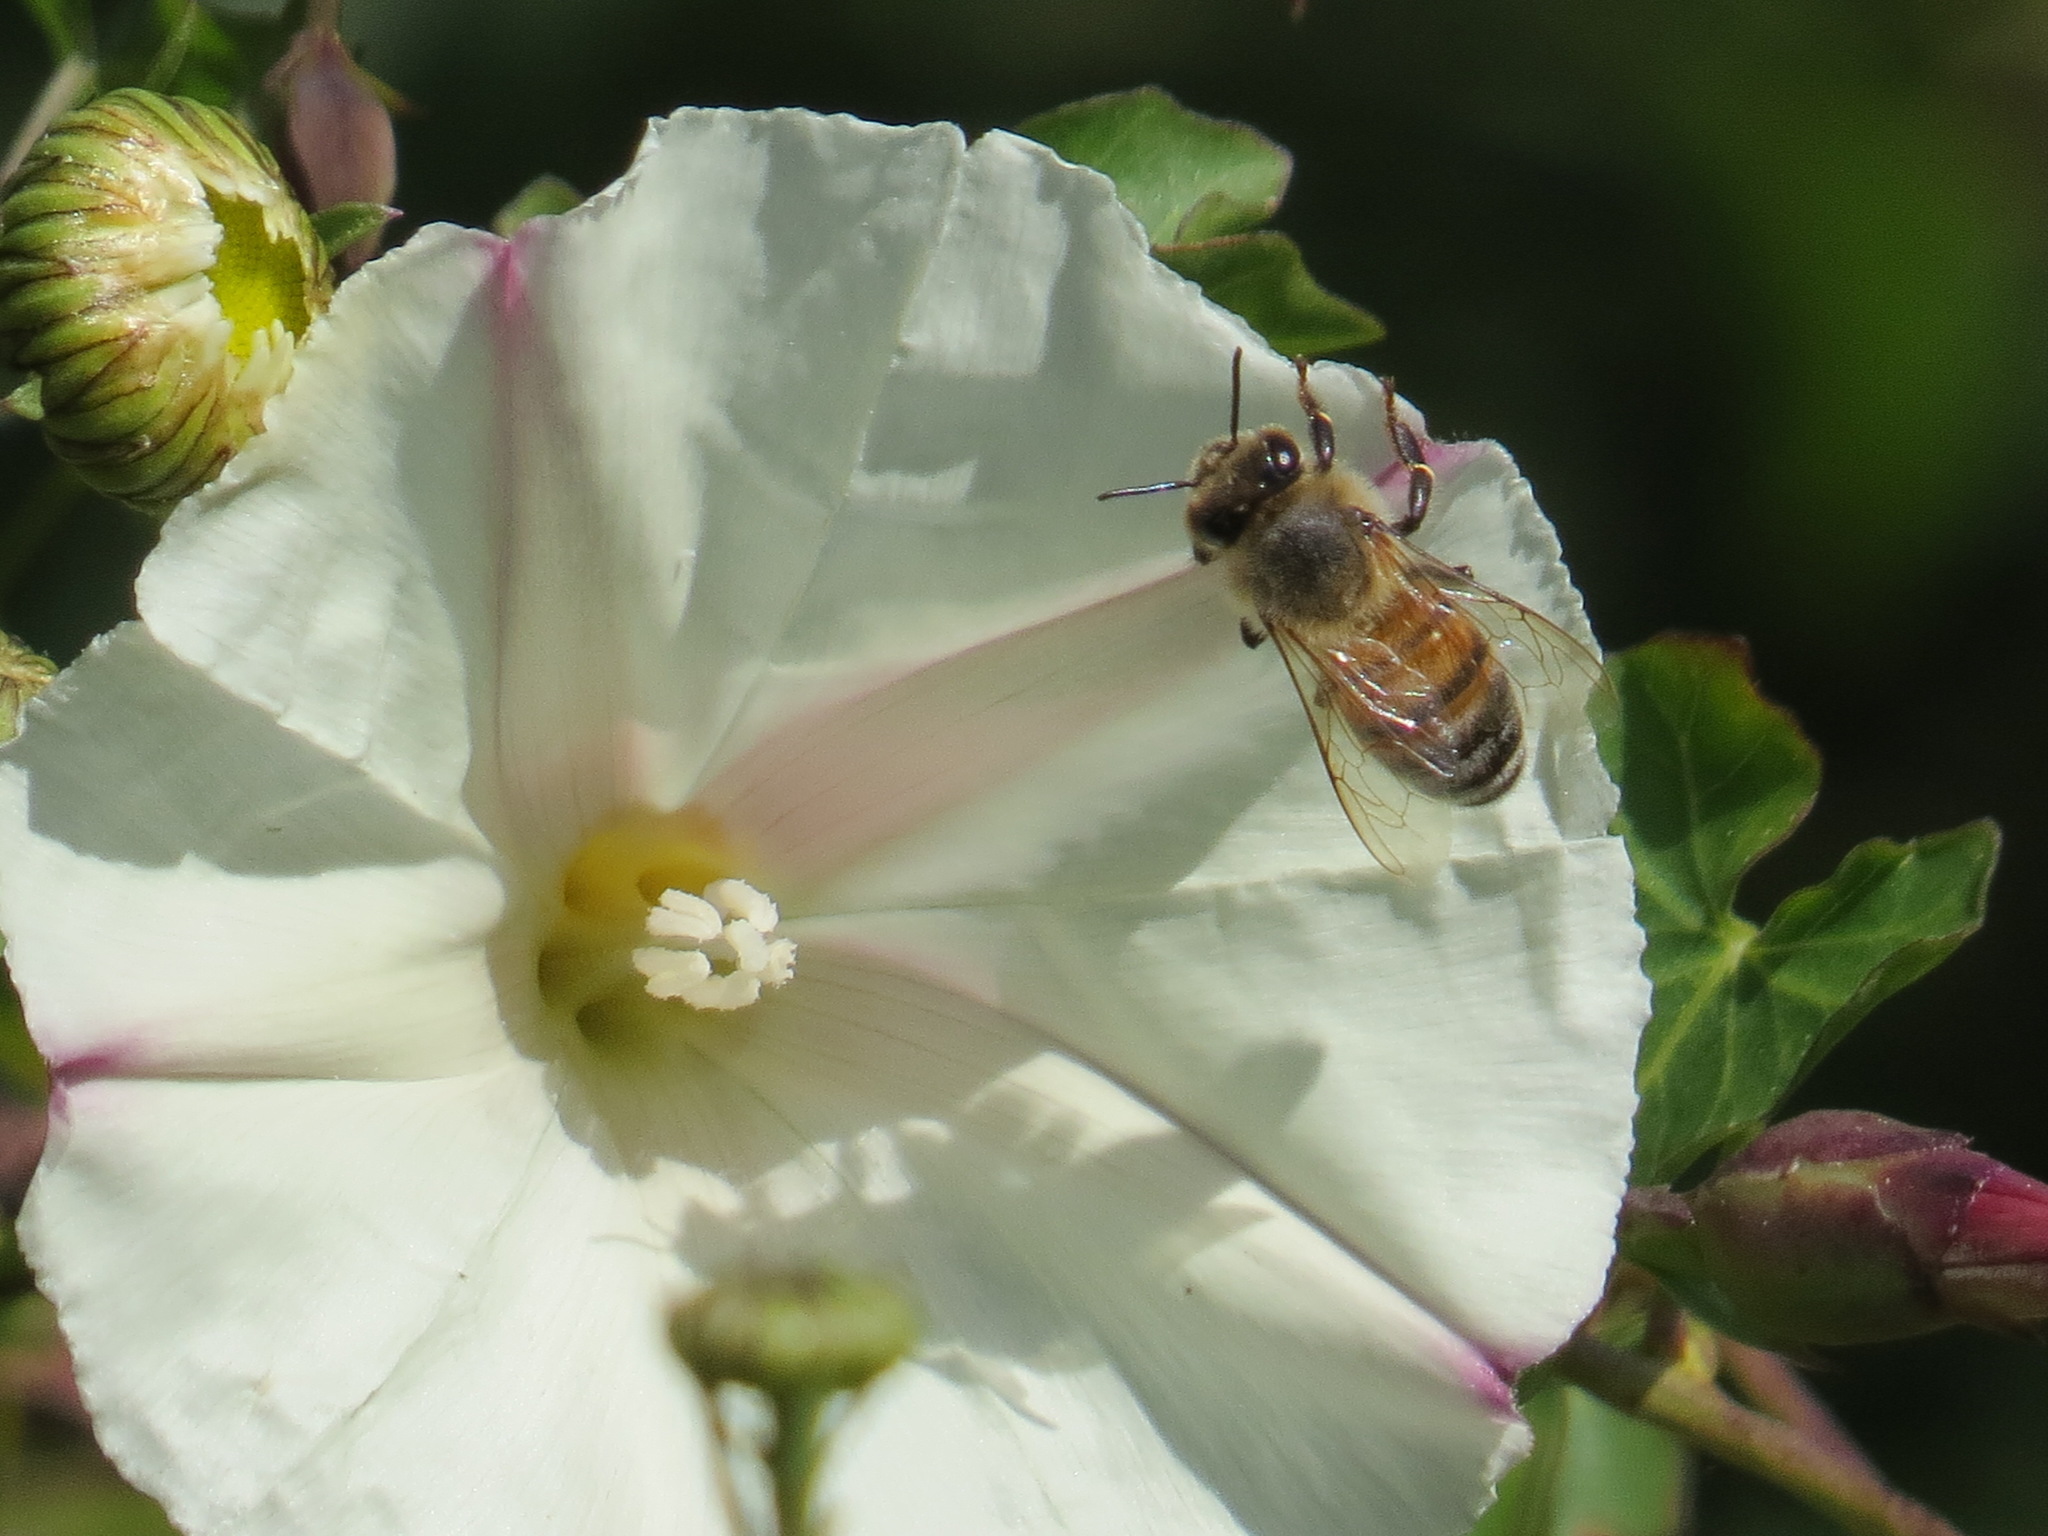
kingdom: Animalia
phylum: Arthropoda
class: Insecta
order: Hymenoptera
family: Apidae
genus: Apis
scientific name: Apis mellifera
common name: Honey bee
